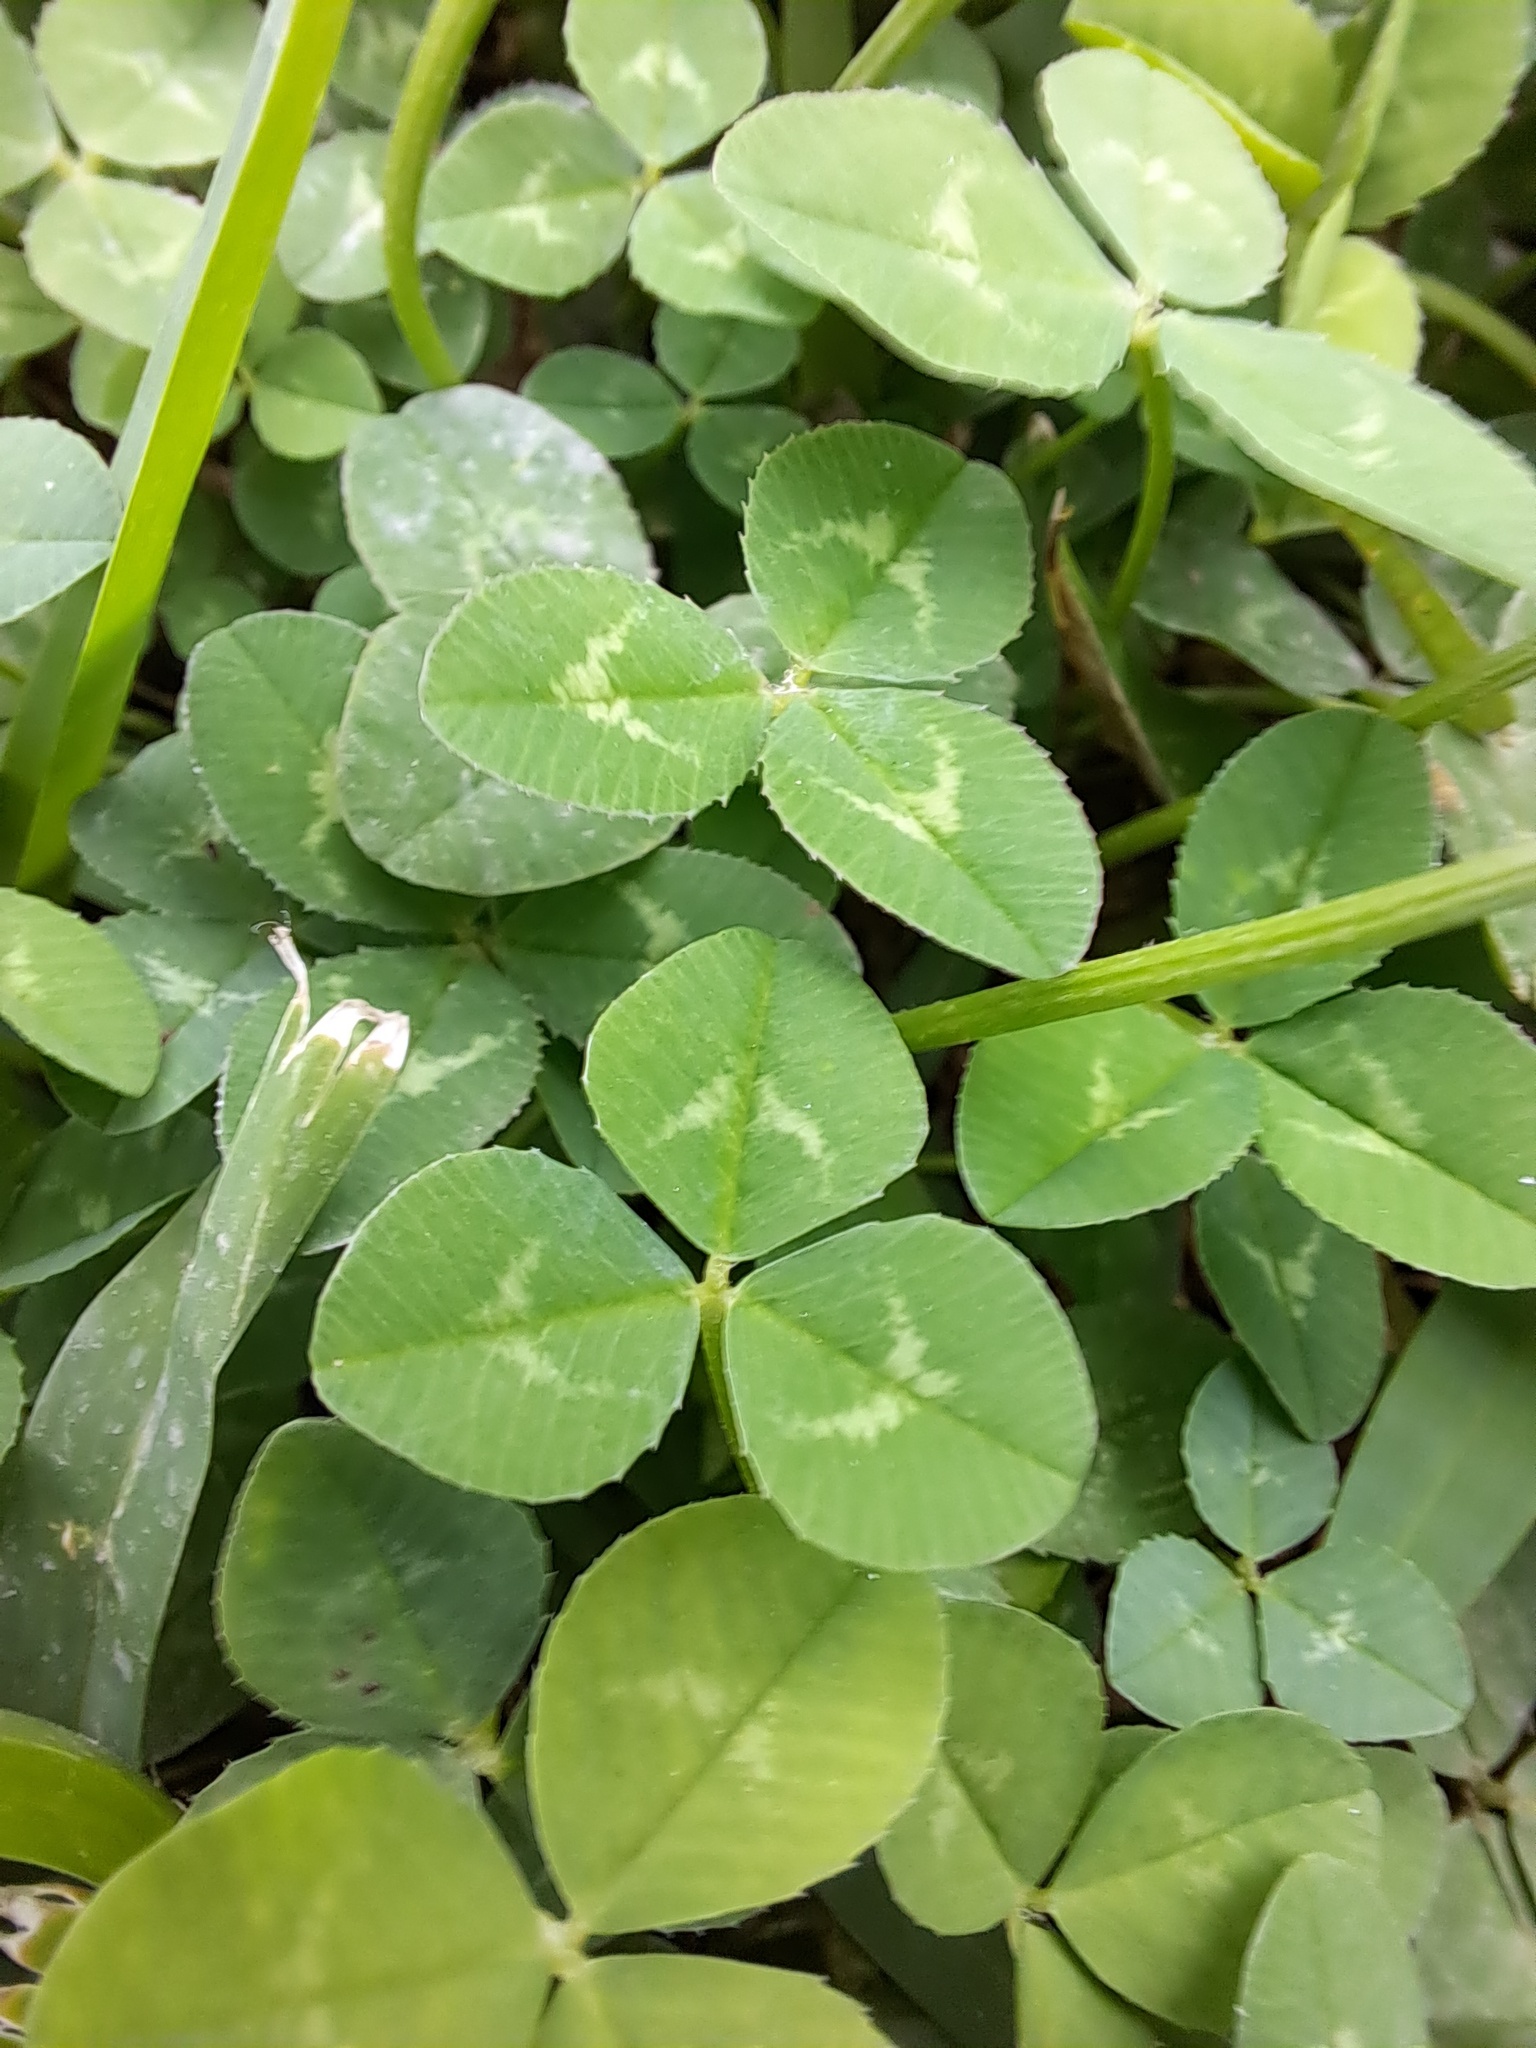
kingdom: Plantae
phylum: Tracheophyta
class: Magnoliopsida
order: Fabales
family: Fabaceae
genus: Trifolium
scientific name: Trifolium repens
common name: White clover
